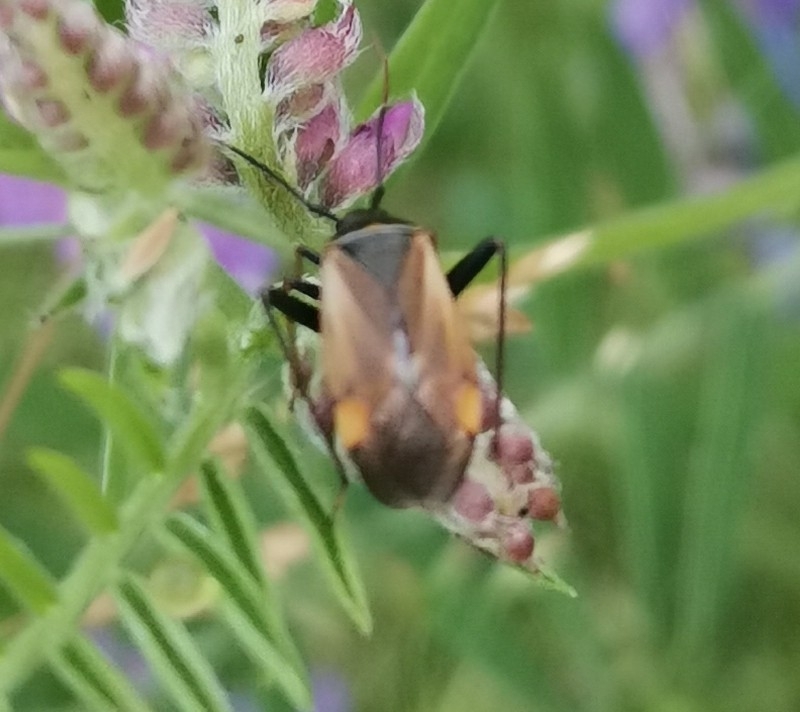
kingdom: Animalia
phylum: Arthropoda
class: Insecta
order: Hemiptera
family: Miridae
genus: Adelphocoris
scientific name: Adelphocoris seticornis
